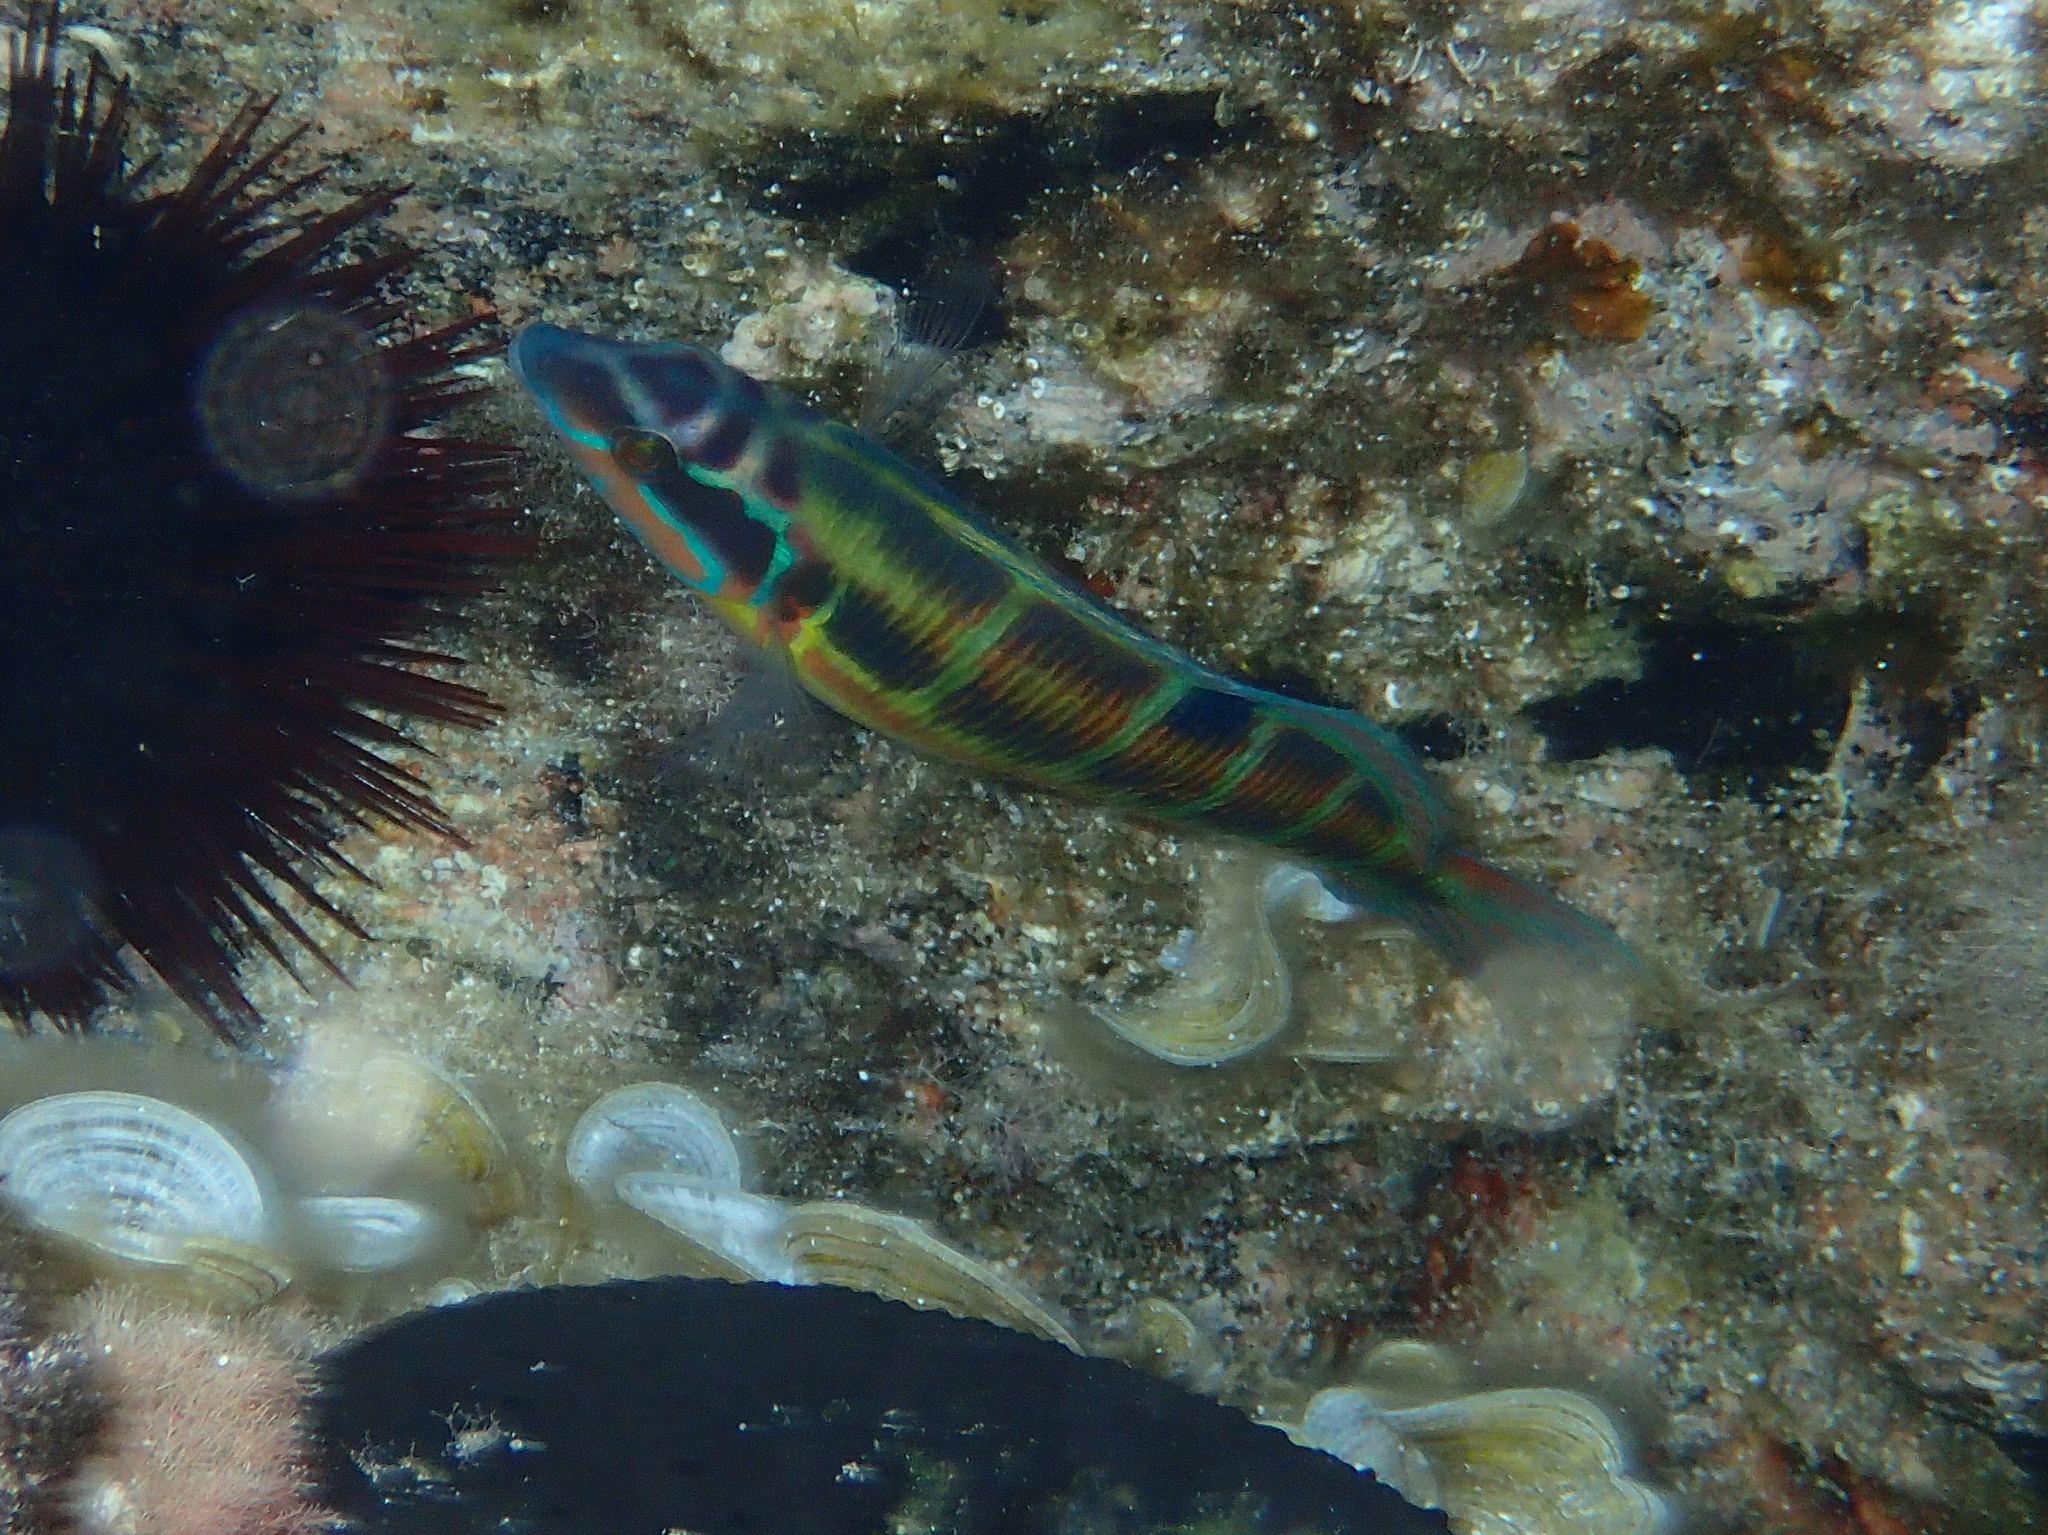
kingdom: Animalia
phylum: Chordata
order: Perciformes
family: Labridae
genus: Thalassoma
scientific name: Thalassoma pavo
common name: Ornate wrasse
